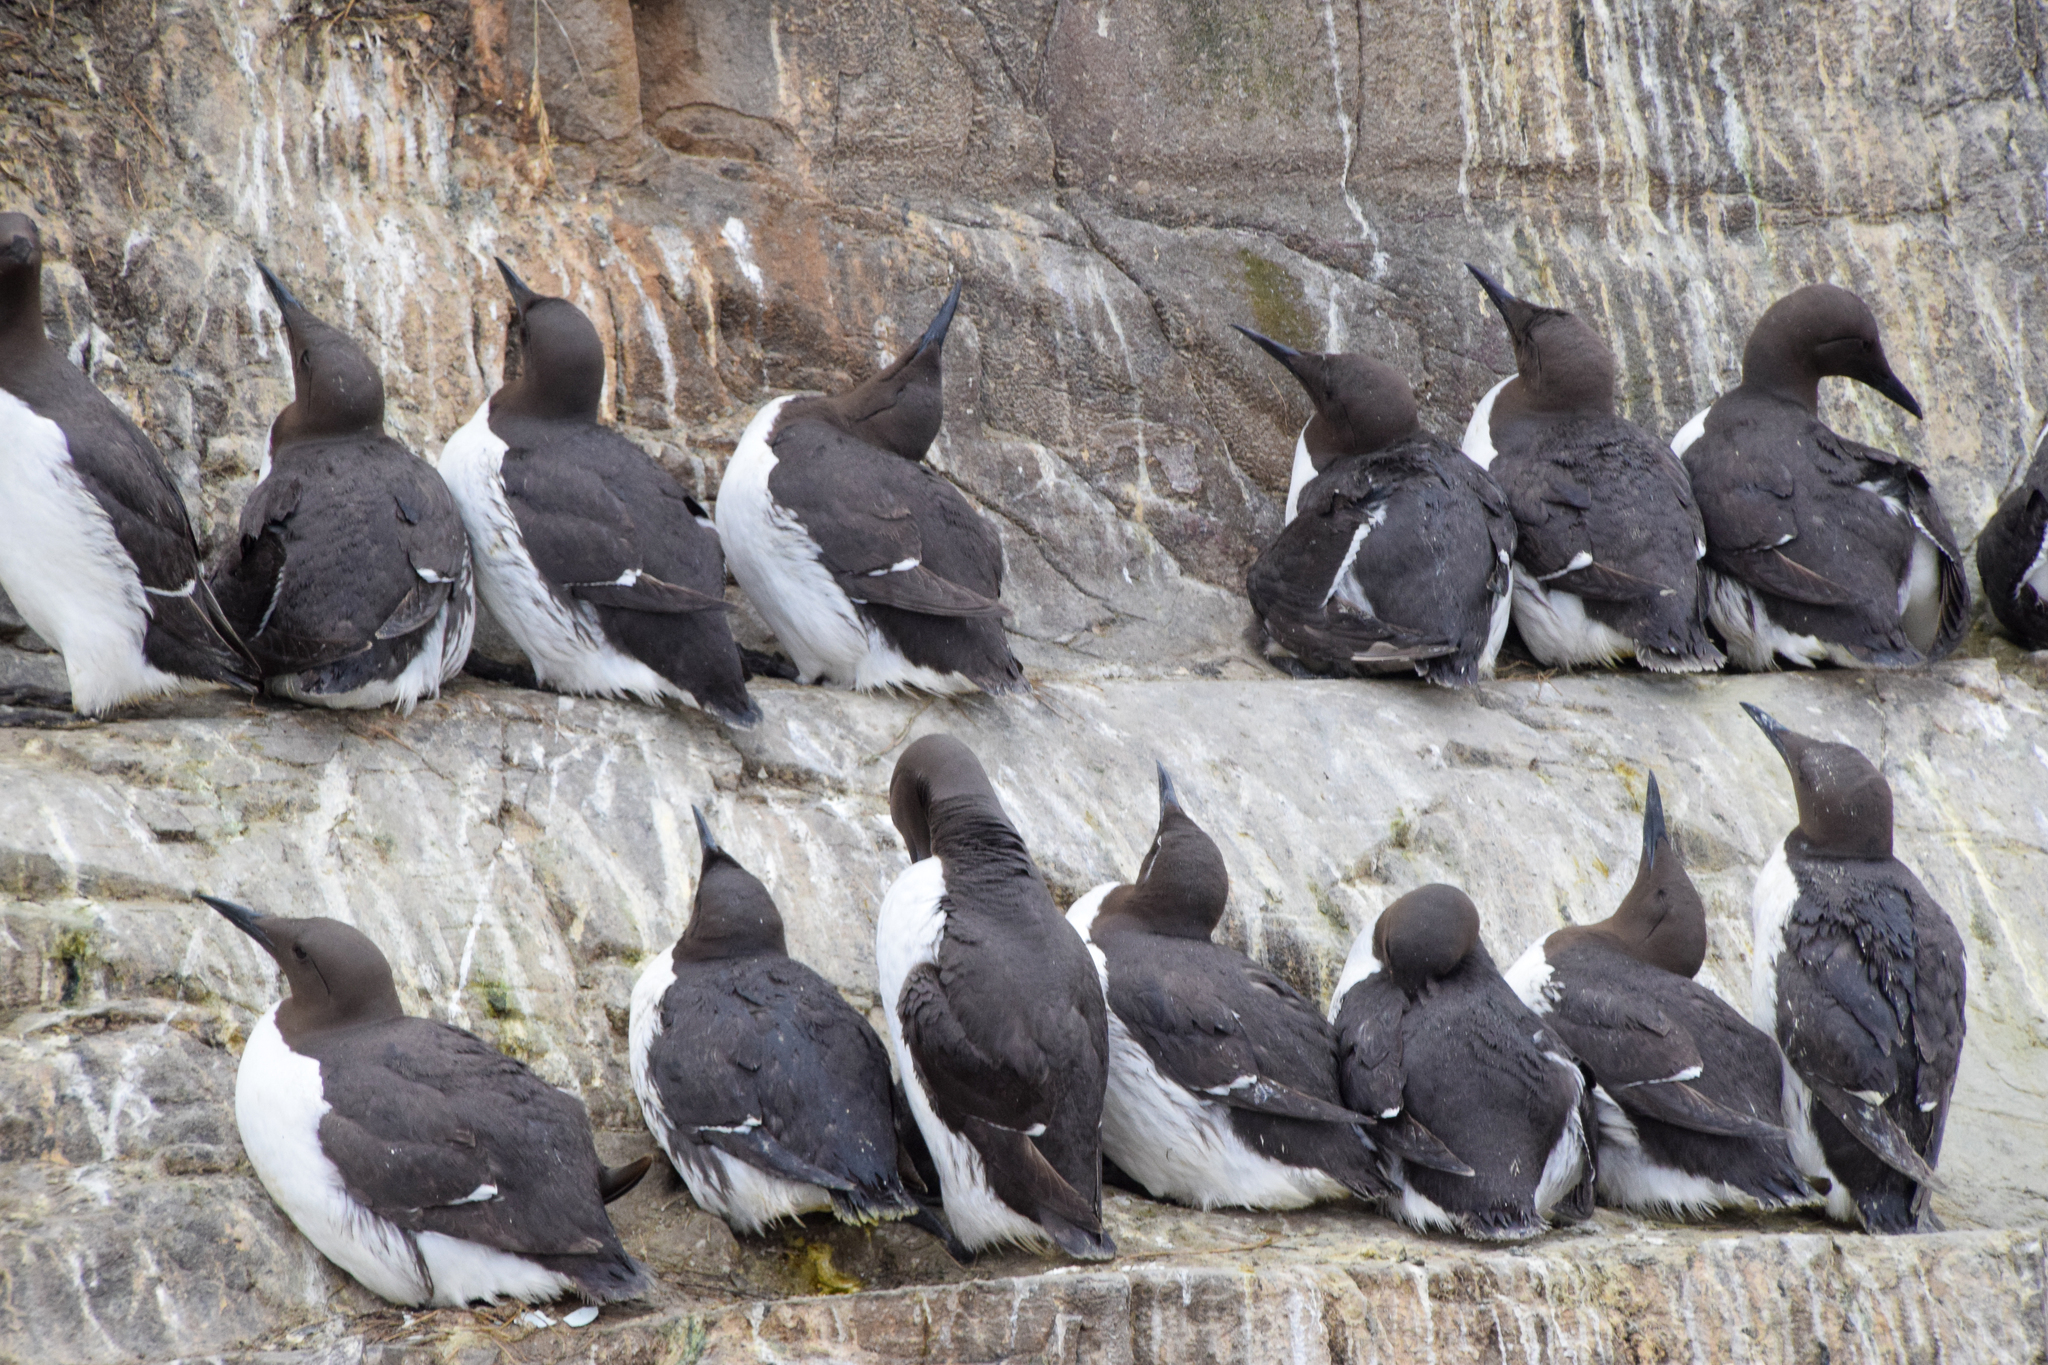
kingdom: Animalia
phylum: Chordata
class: Aves
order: Charadriiformes
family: Alcidae
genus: Uria
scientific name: Uria aalge
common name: Common murre
